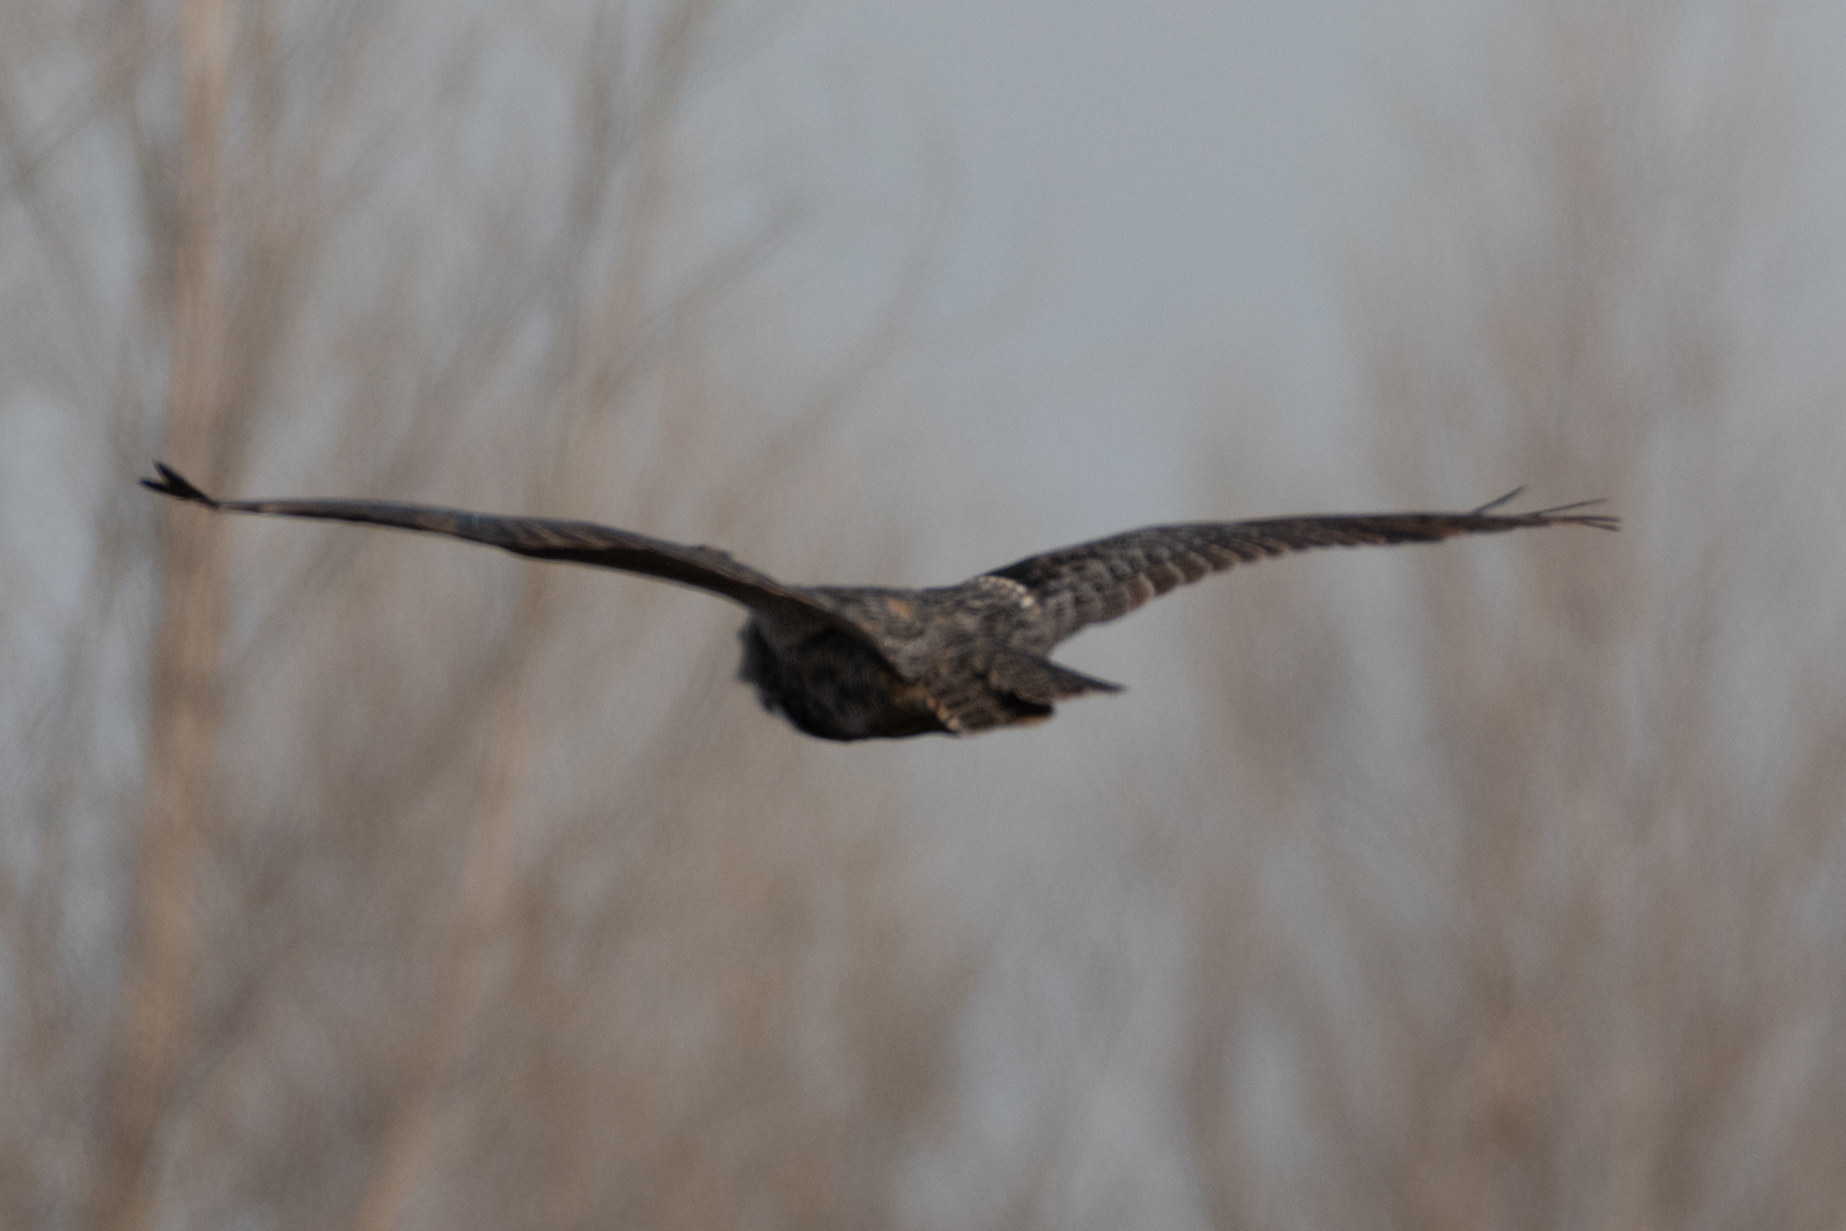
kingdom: Animalia
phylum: Chordata
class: Aves
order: Strigiformes
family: Strigidae
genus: Bubo
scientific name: Bubo virginianus
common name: Great horned owl
